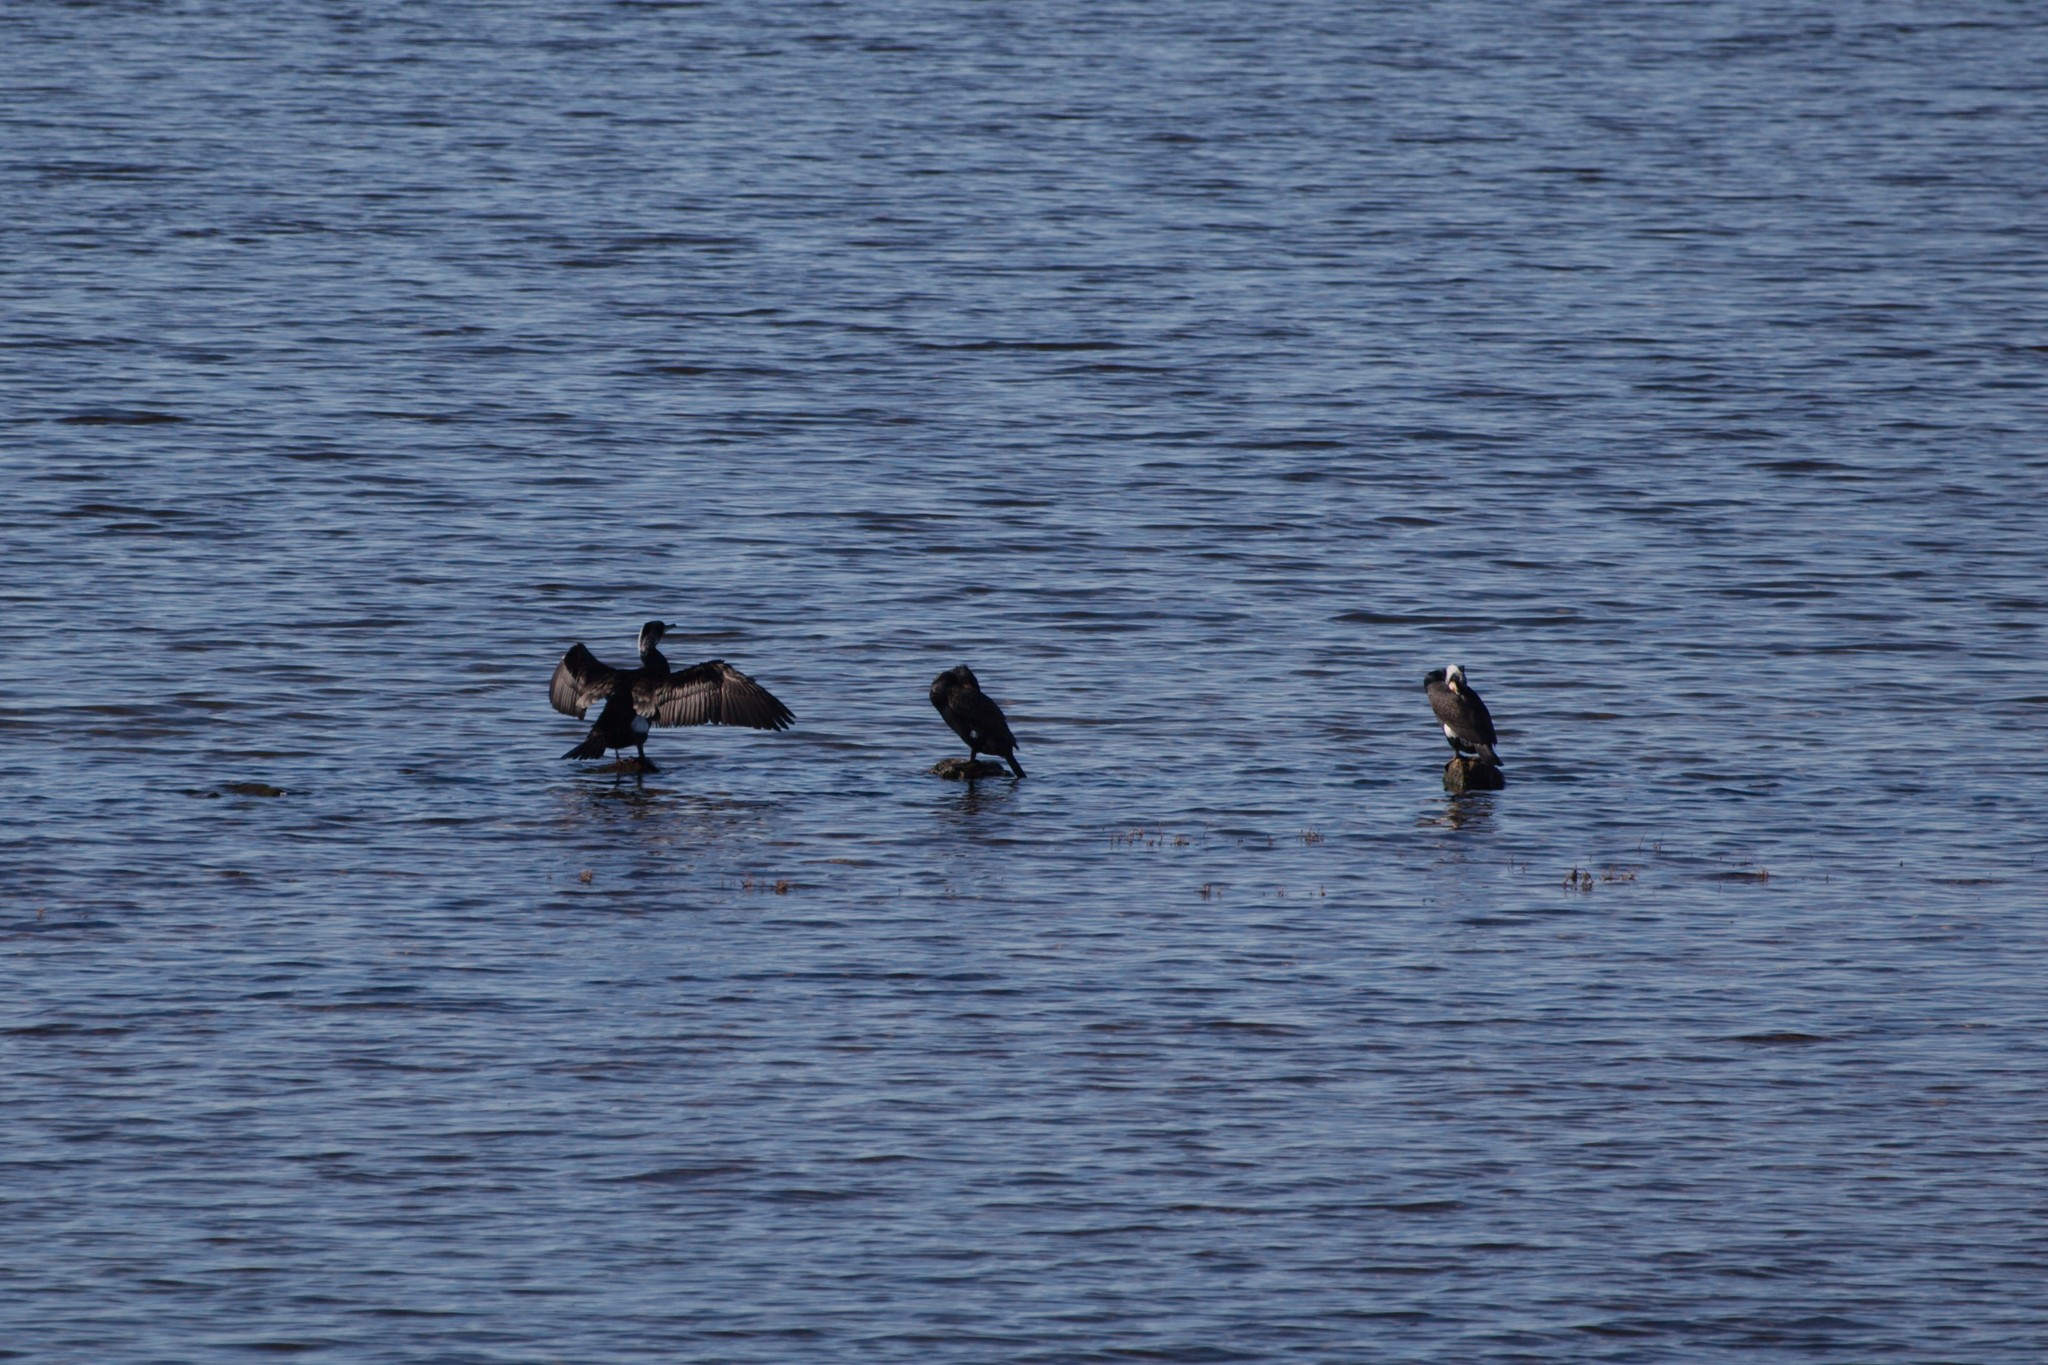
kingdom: Animalia
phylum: Chordata
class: Aves
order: Suliformes
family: Phalacrocoracidae
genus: Phalacrocorax
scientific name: Phalacrocorax carbo
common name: Great cormorant
